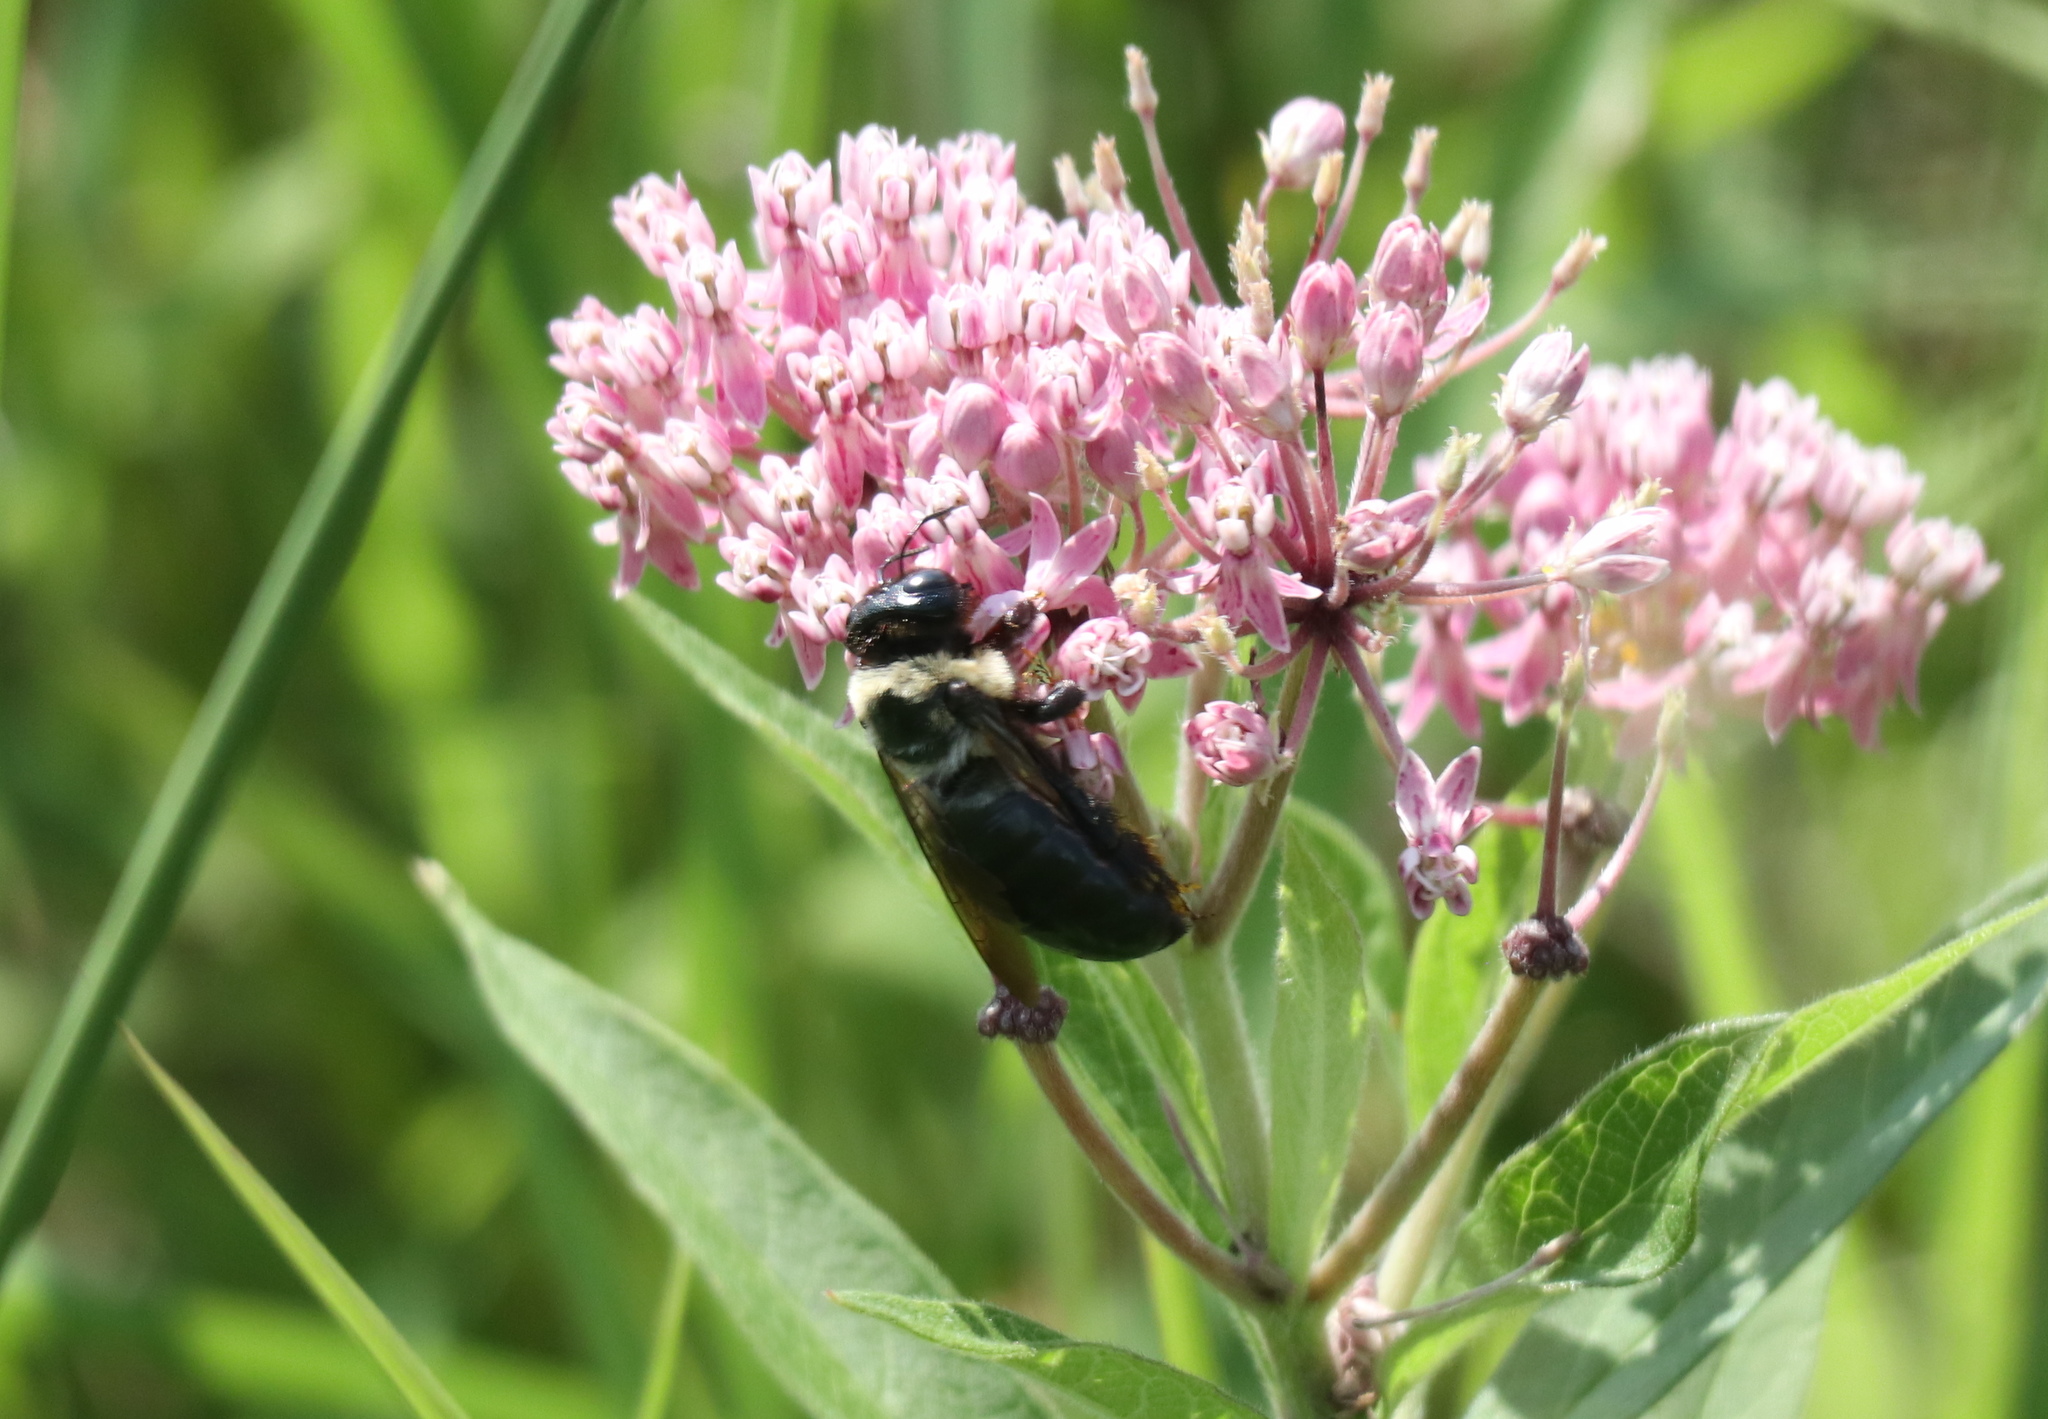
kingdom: Animalia
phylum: Arthropoda
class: Insecta
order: Hymenoptera
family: Apidae
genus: Xylocopa
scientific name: Xylocopa virginica
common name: Carpenter bee
